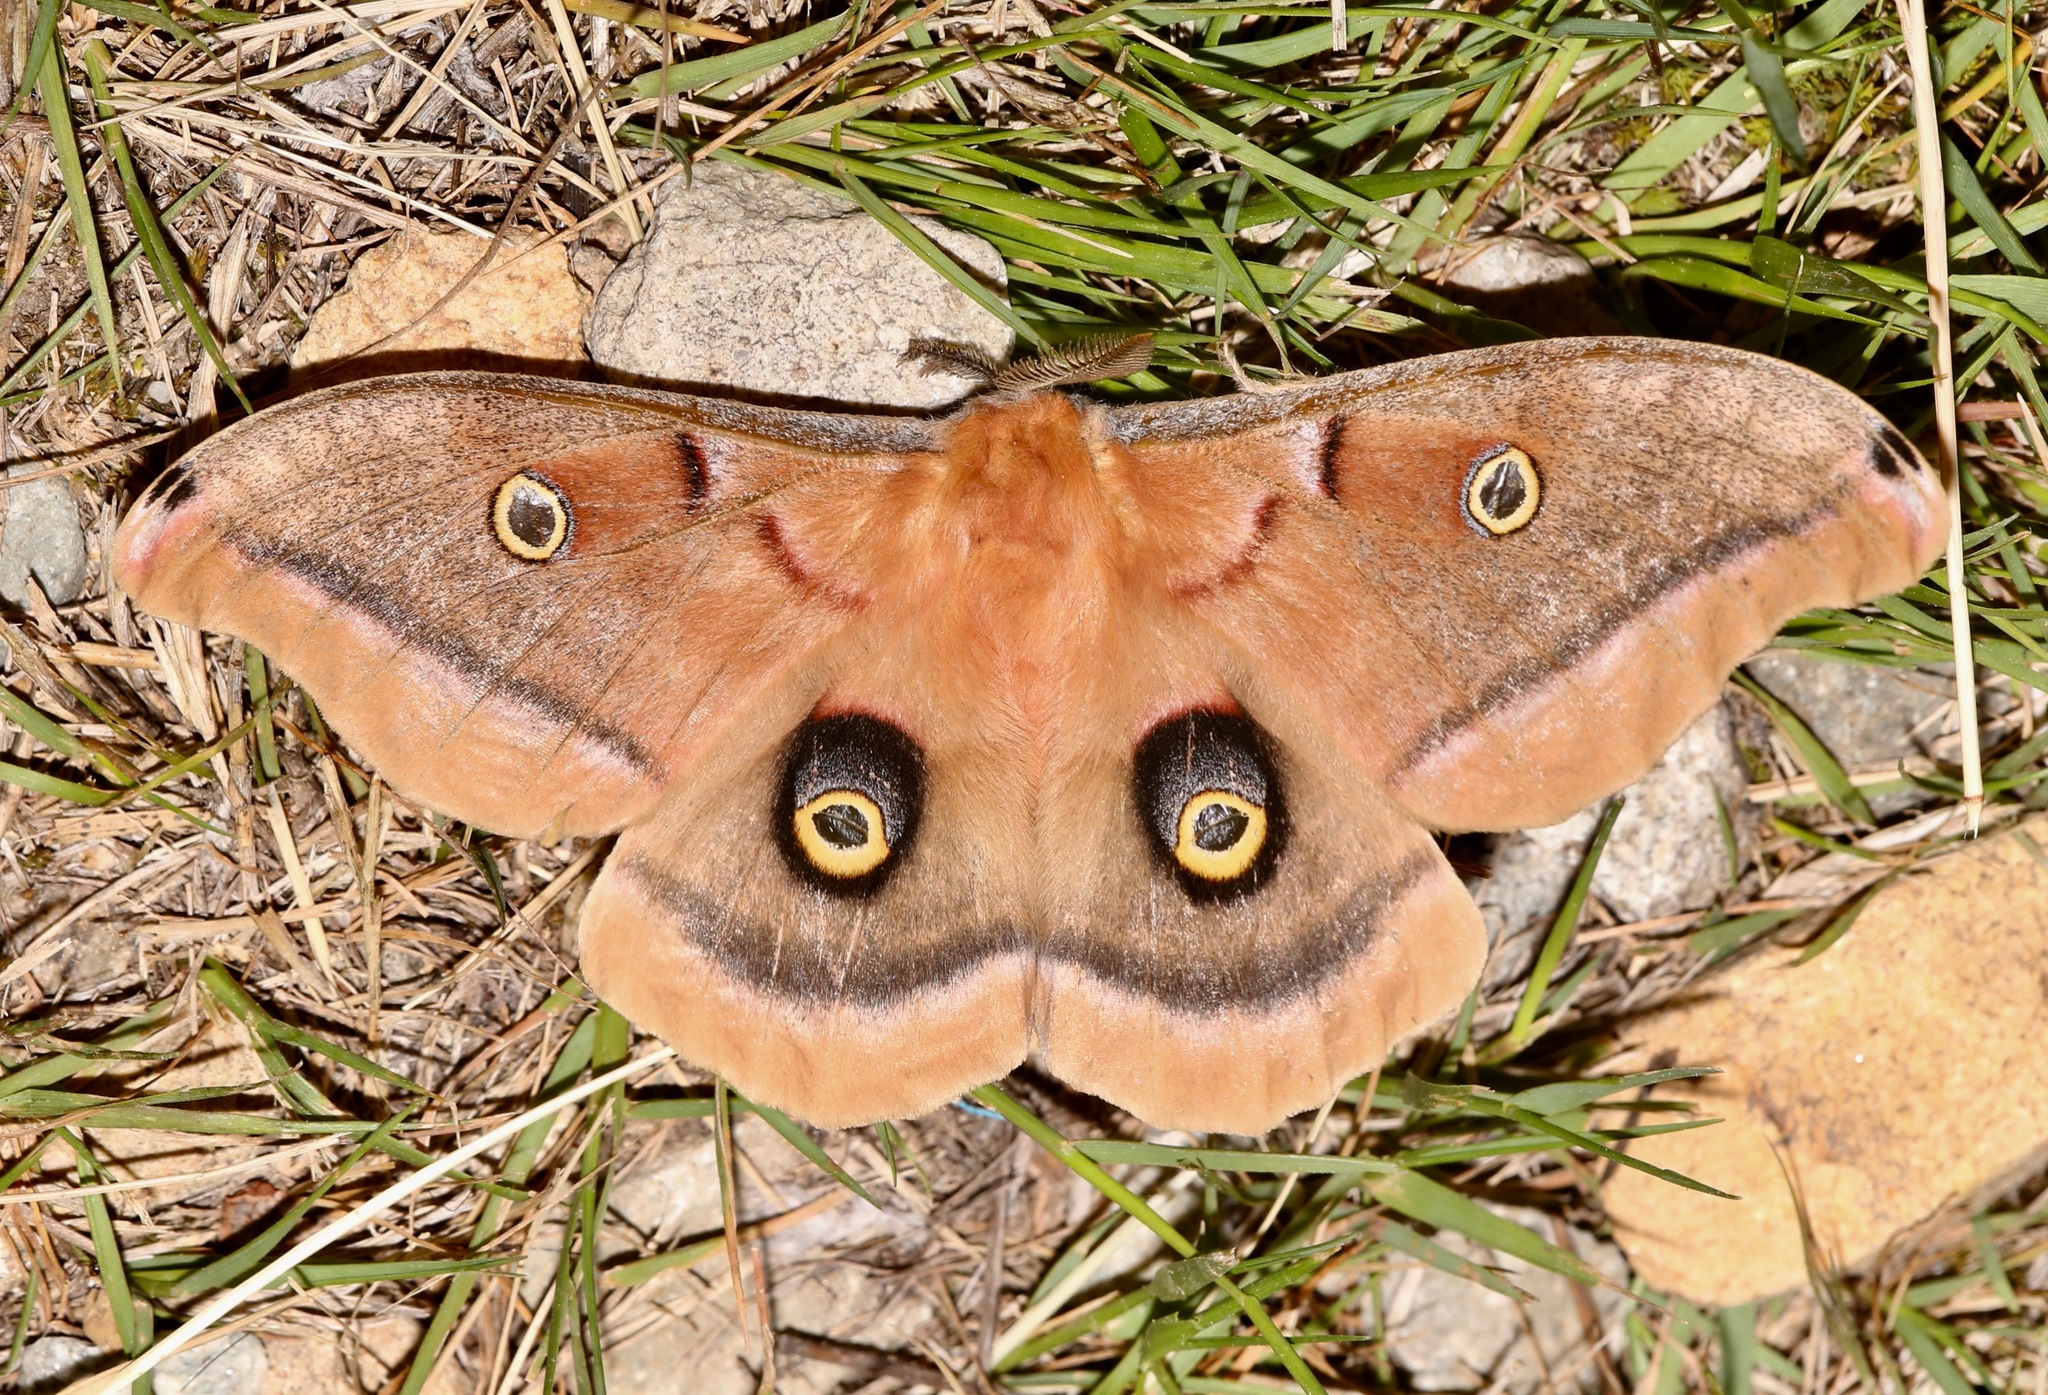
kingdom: Animalia
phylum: Arthropoda
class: Insecta
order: Lepidoptera
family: Saturniidae
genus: Antheraea
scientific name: Antheraea polyphemus
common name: Polyphemus moth
